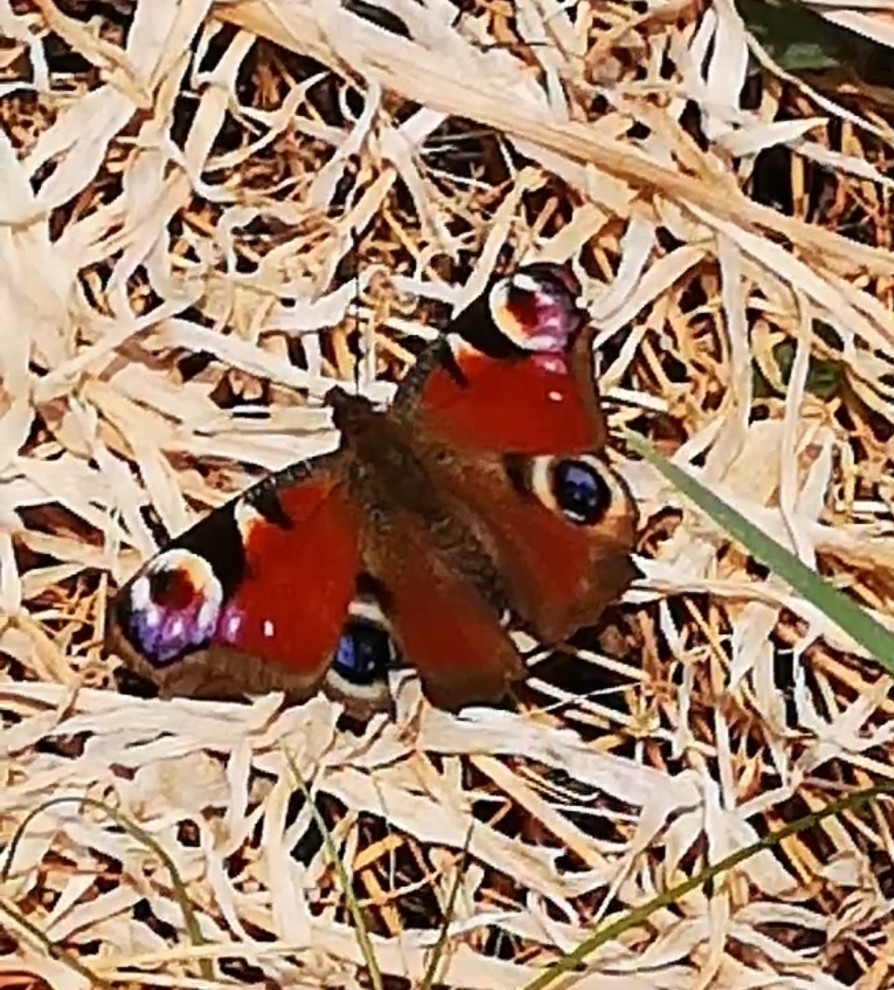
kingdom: Animalia
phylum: Arthropoda
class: Insecta
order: Lepidoptera
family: Nymphalidae
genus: Aglais
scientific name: Aglais io
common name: Peacock
